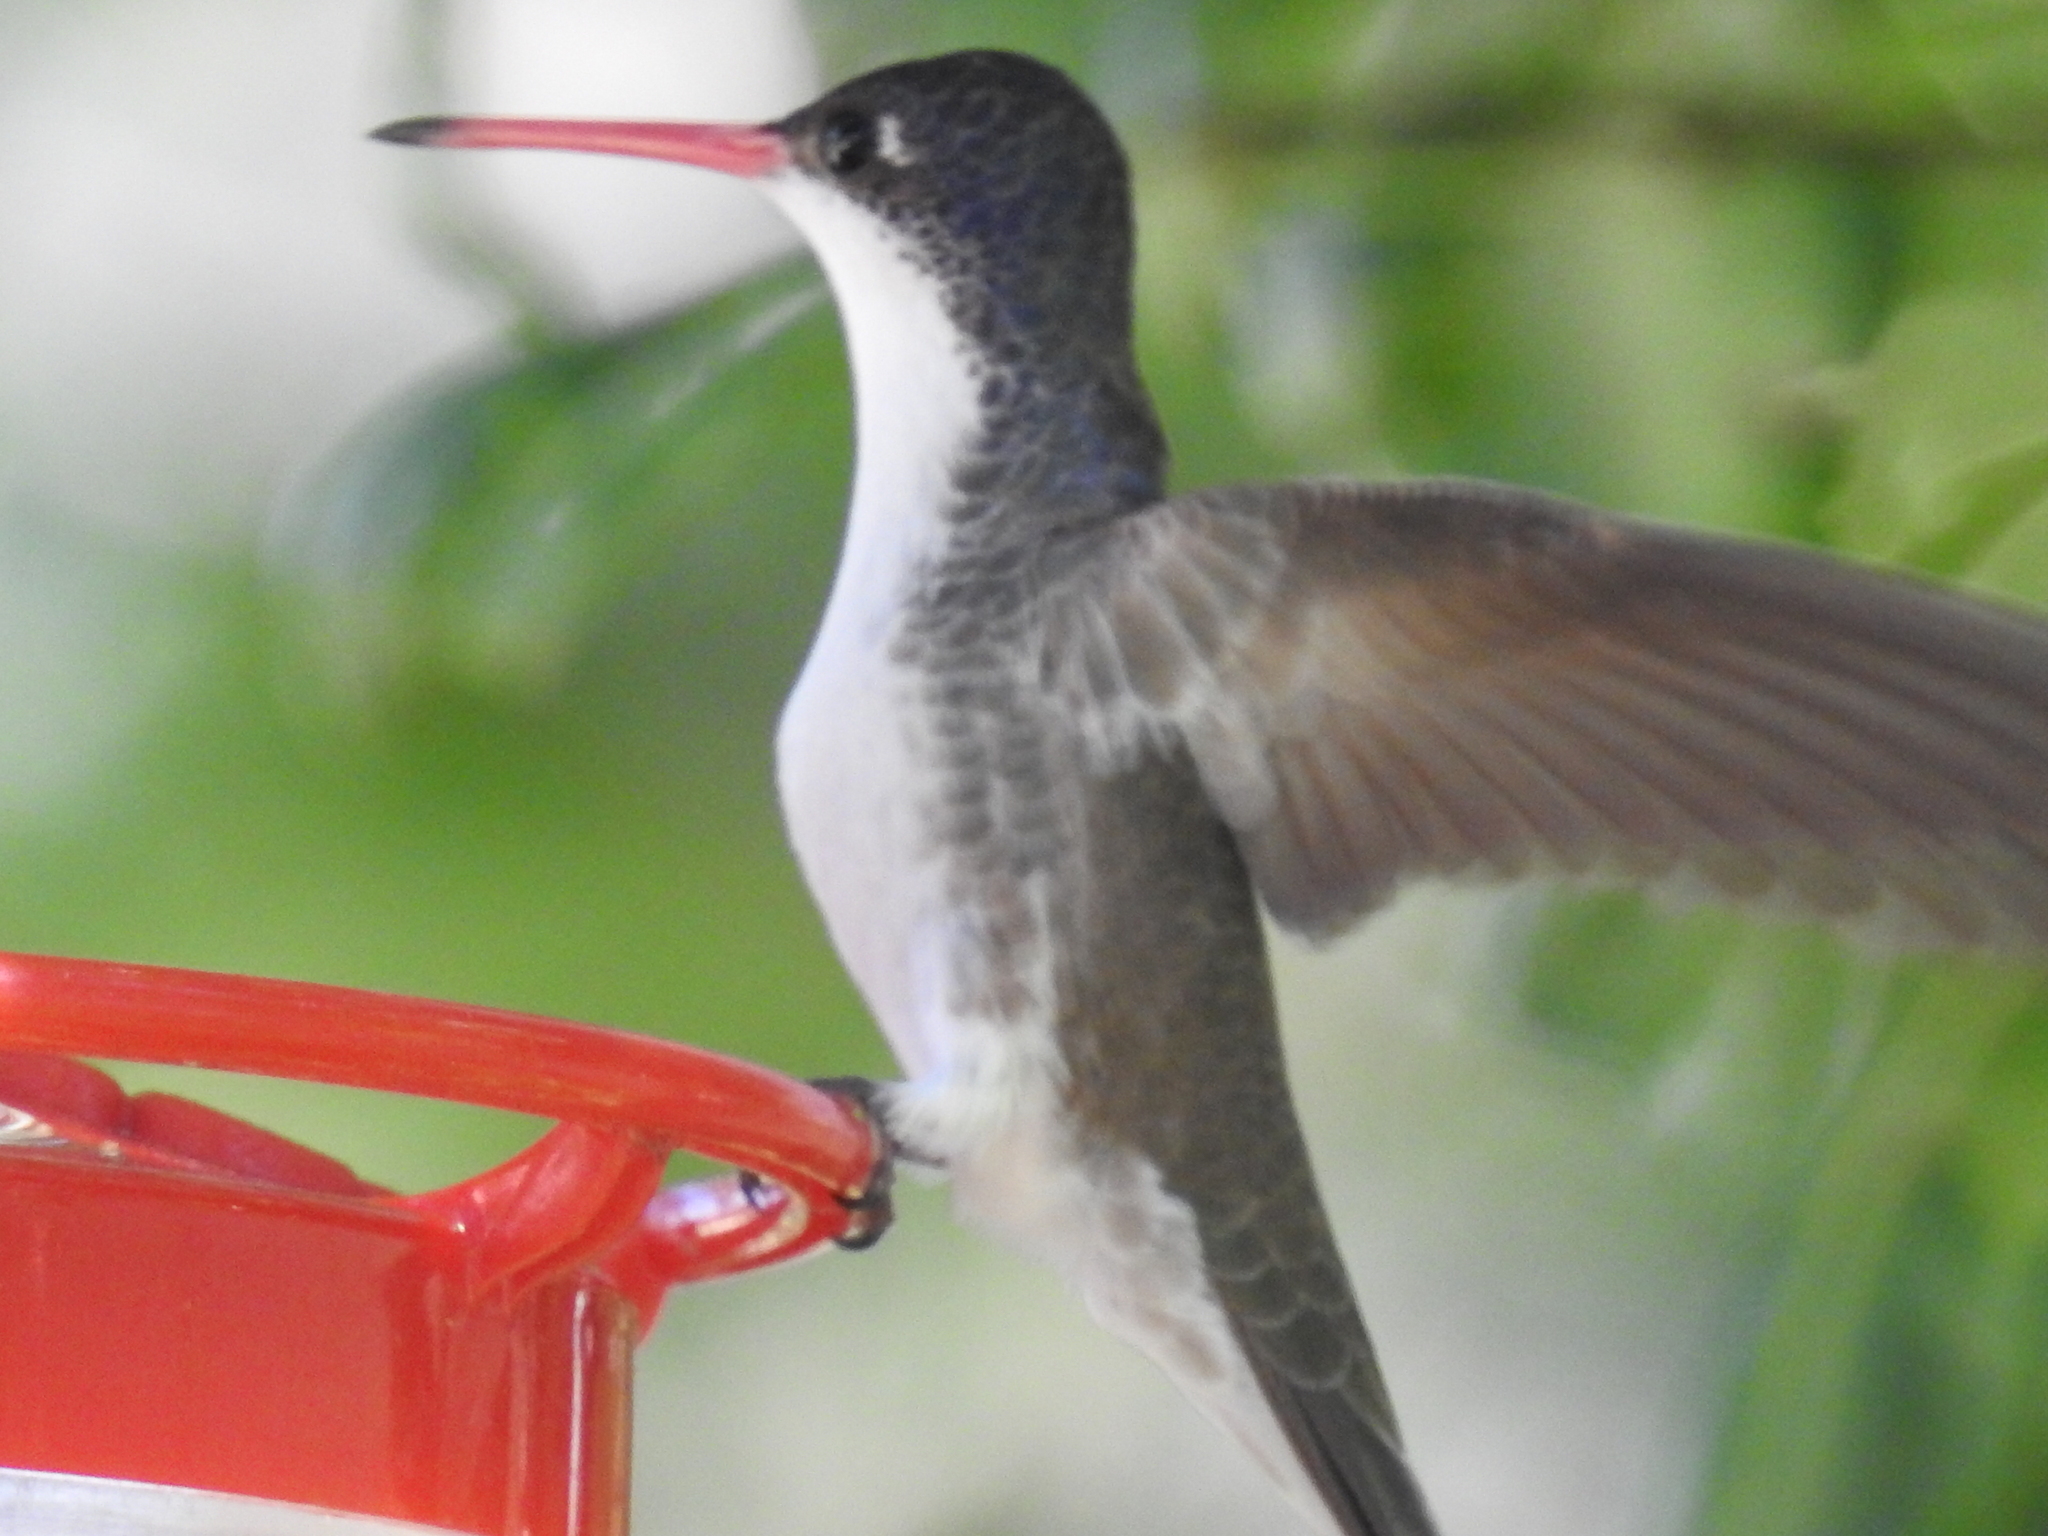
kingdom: Animalia
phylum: Chordata
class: Aves
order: Apodiformes
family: Trochilidae
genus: Leucolia
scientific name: Leucolia violiceps
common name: Violet-crowned hummingbird
